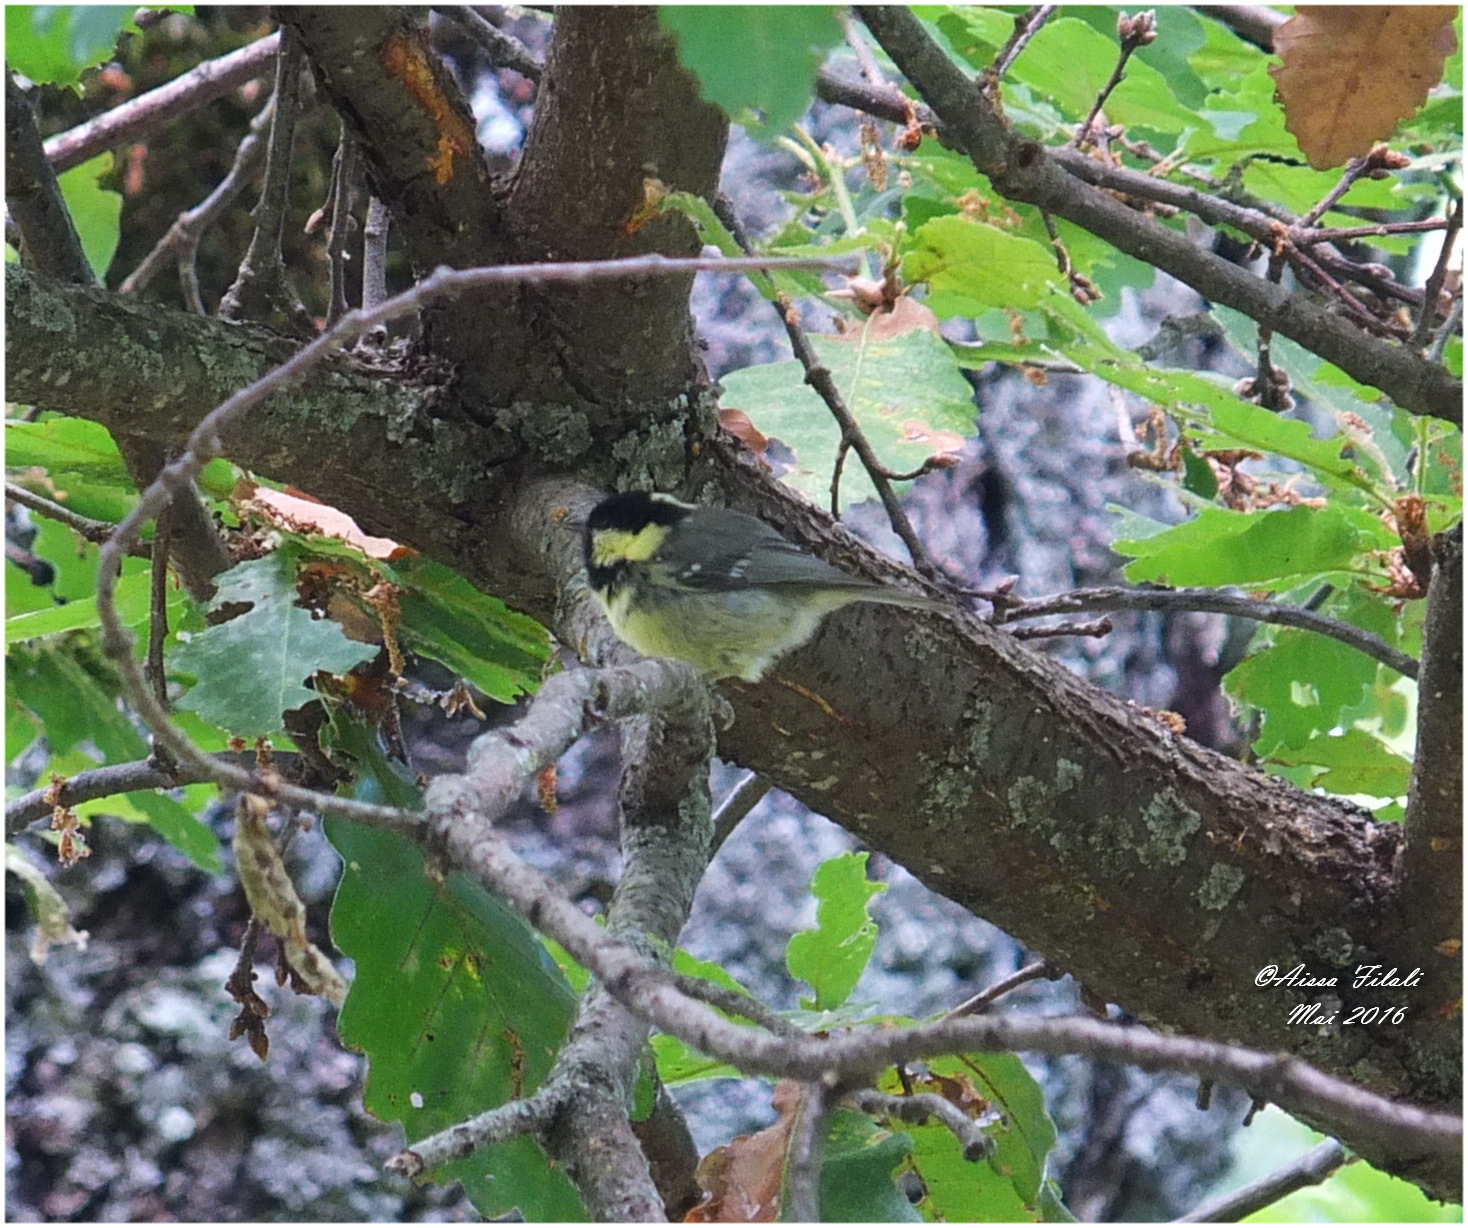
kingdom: Animalia
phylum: Chordata
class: Aves
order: Passeriformes
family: Paridae
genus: Periparus
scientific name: Periparus ater
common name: Coal tit
